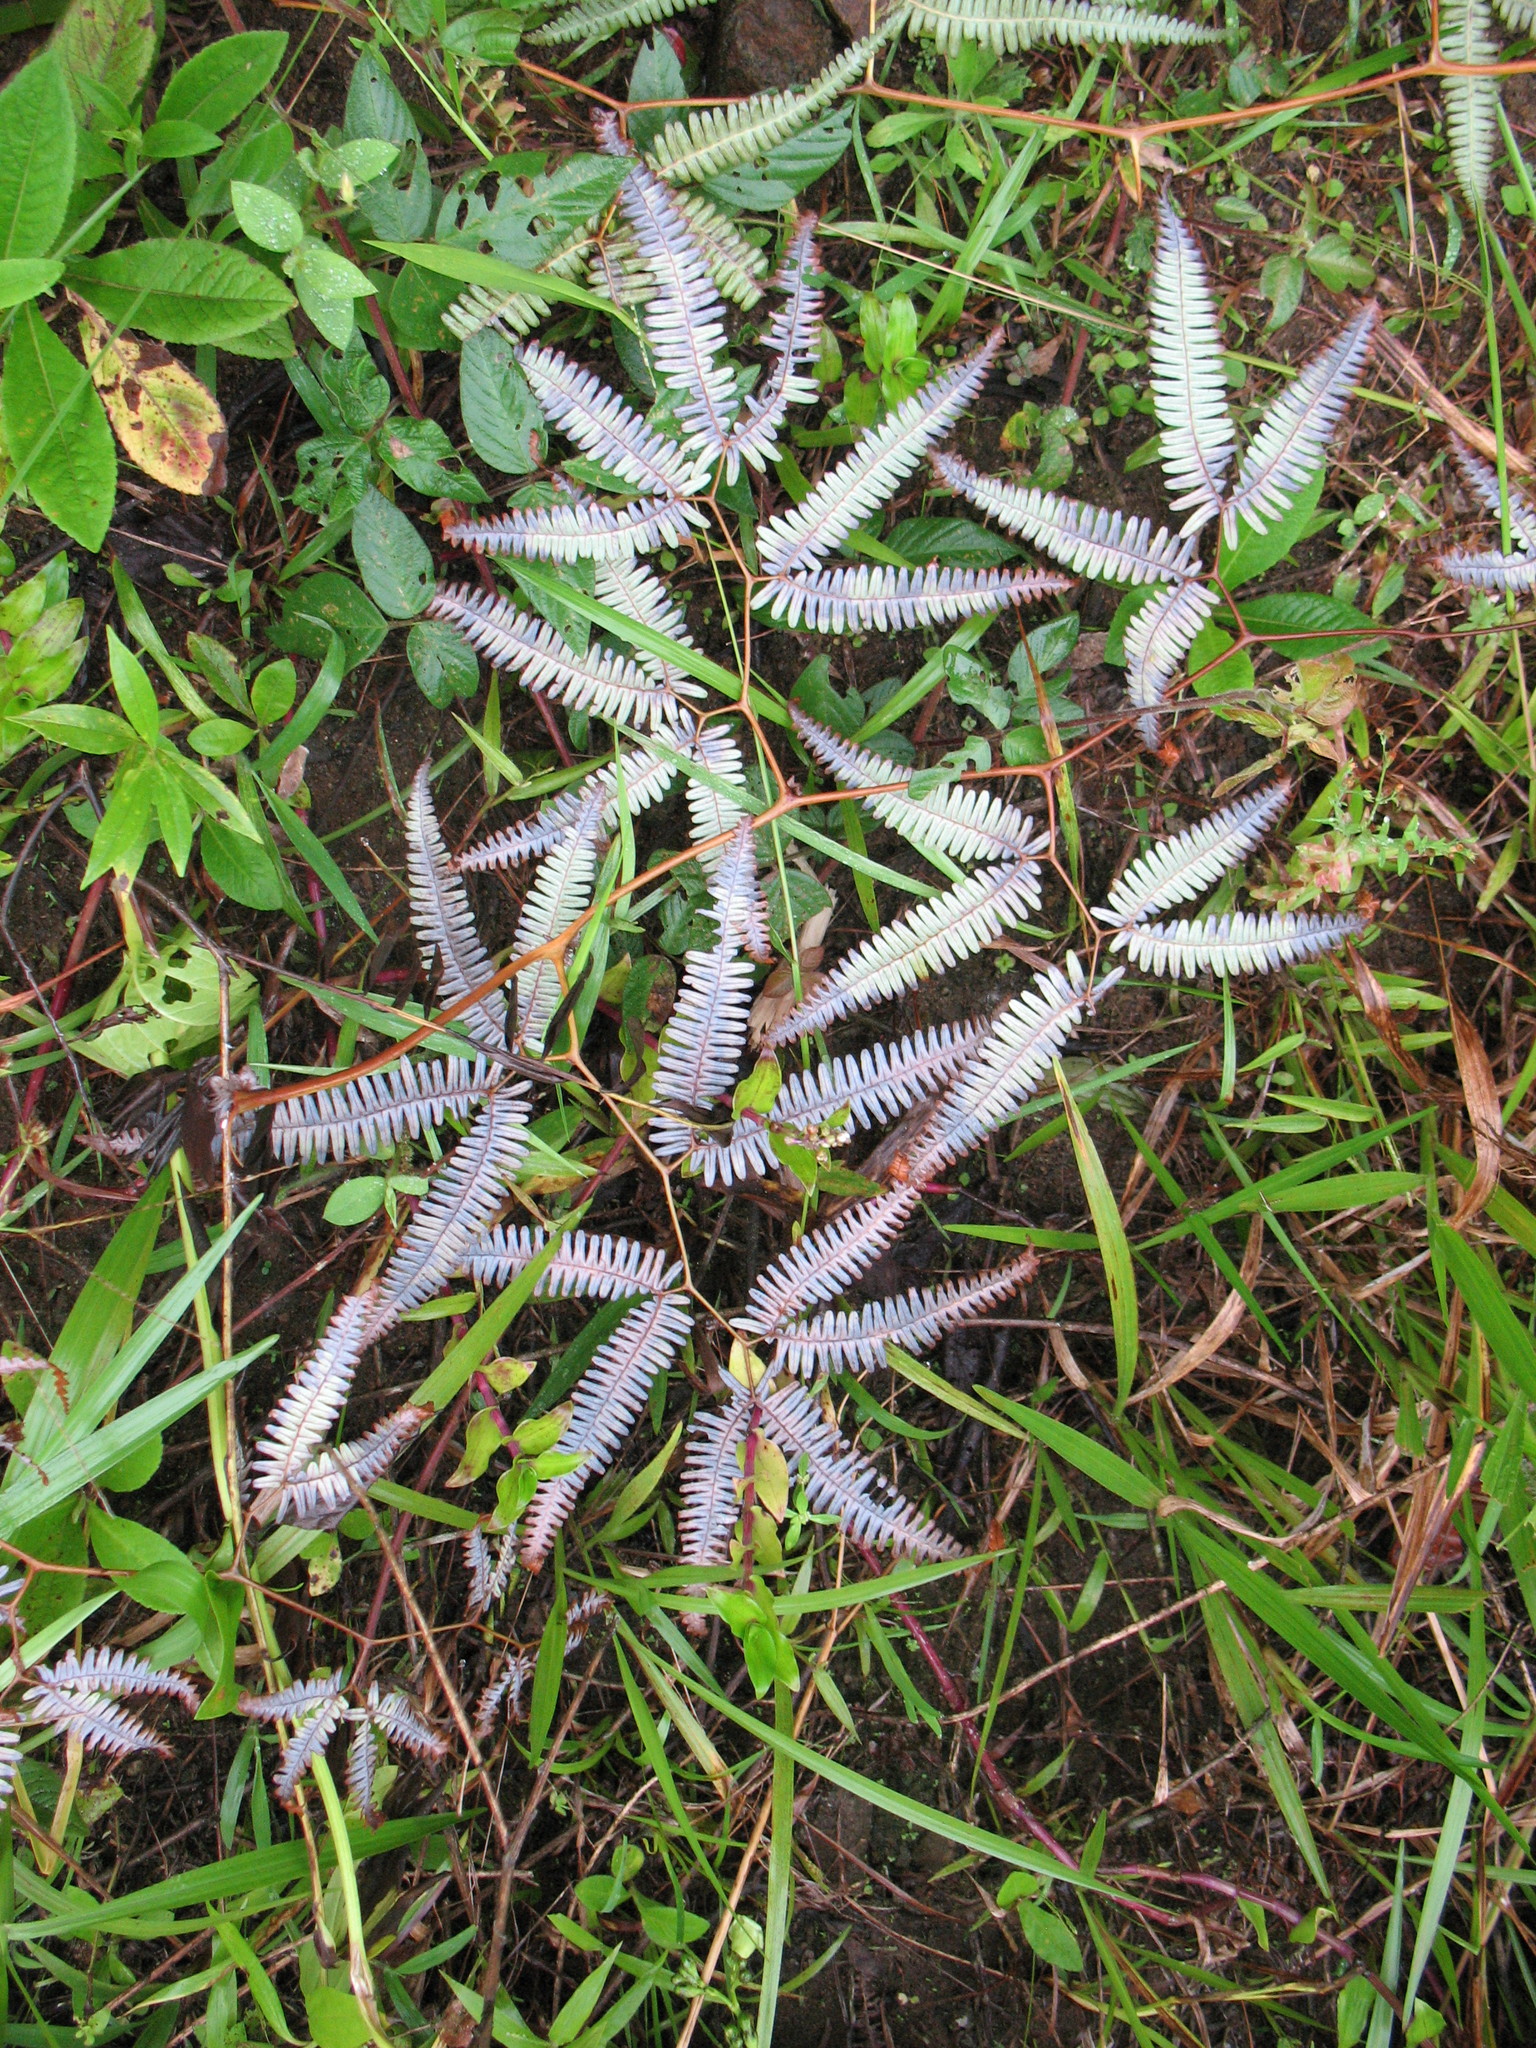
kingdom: Plantae
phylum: Tracheophyta
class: Polypodiopsida
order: Gleicheniales
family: Gleicheniaceae
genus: Gleichenella
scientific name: Gleichenella pectinata
